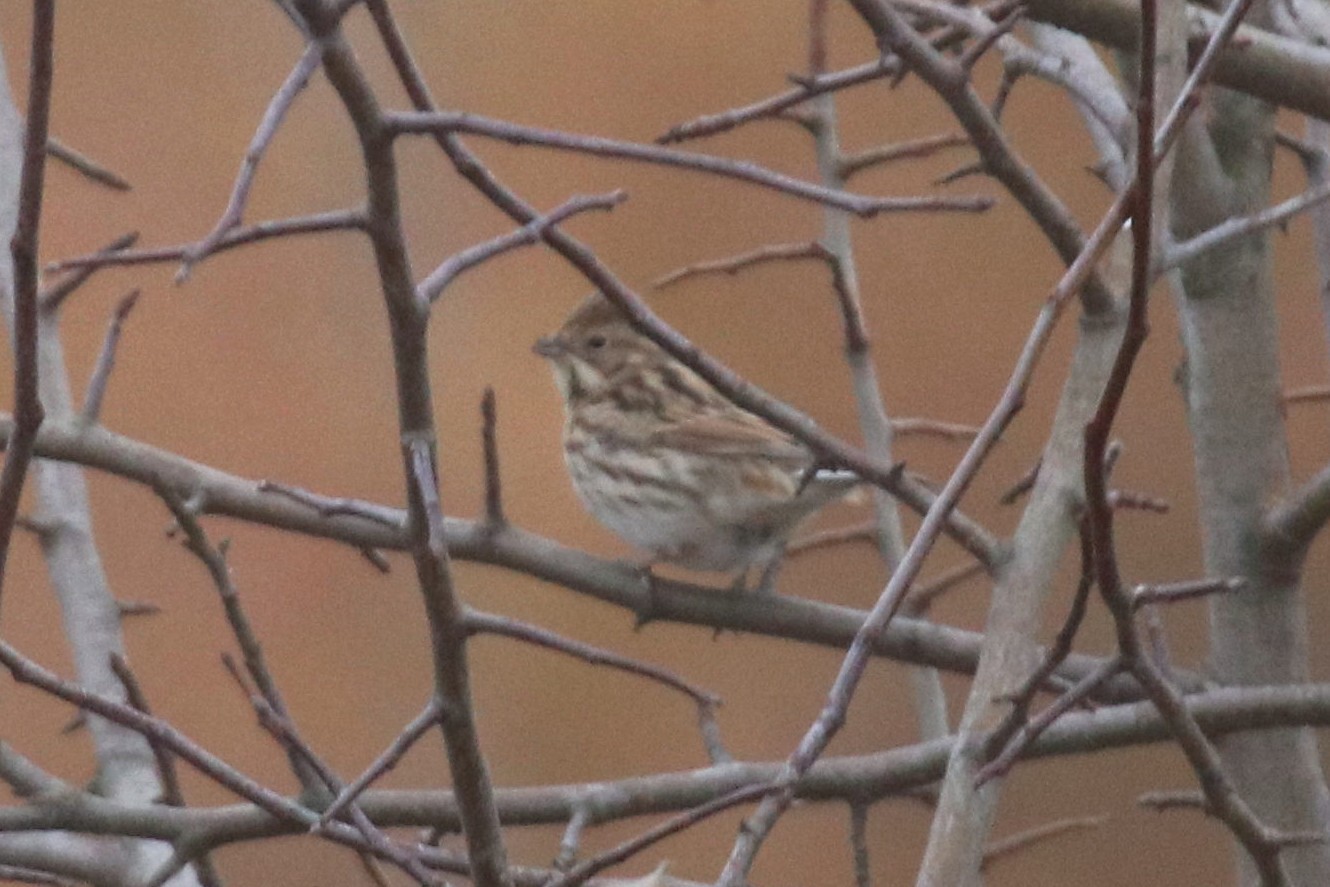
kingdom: Animalia
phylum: Chordata
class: Aves
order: Passeriformes
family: Emberizidae
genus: Emberiza
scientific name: Emberiza schoeniclus
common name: Reed bunting
